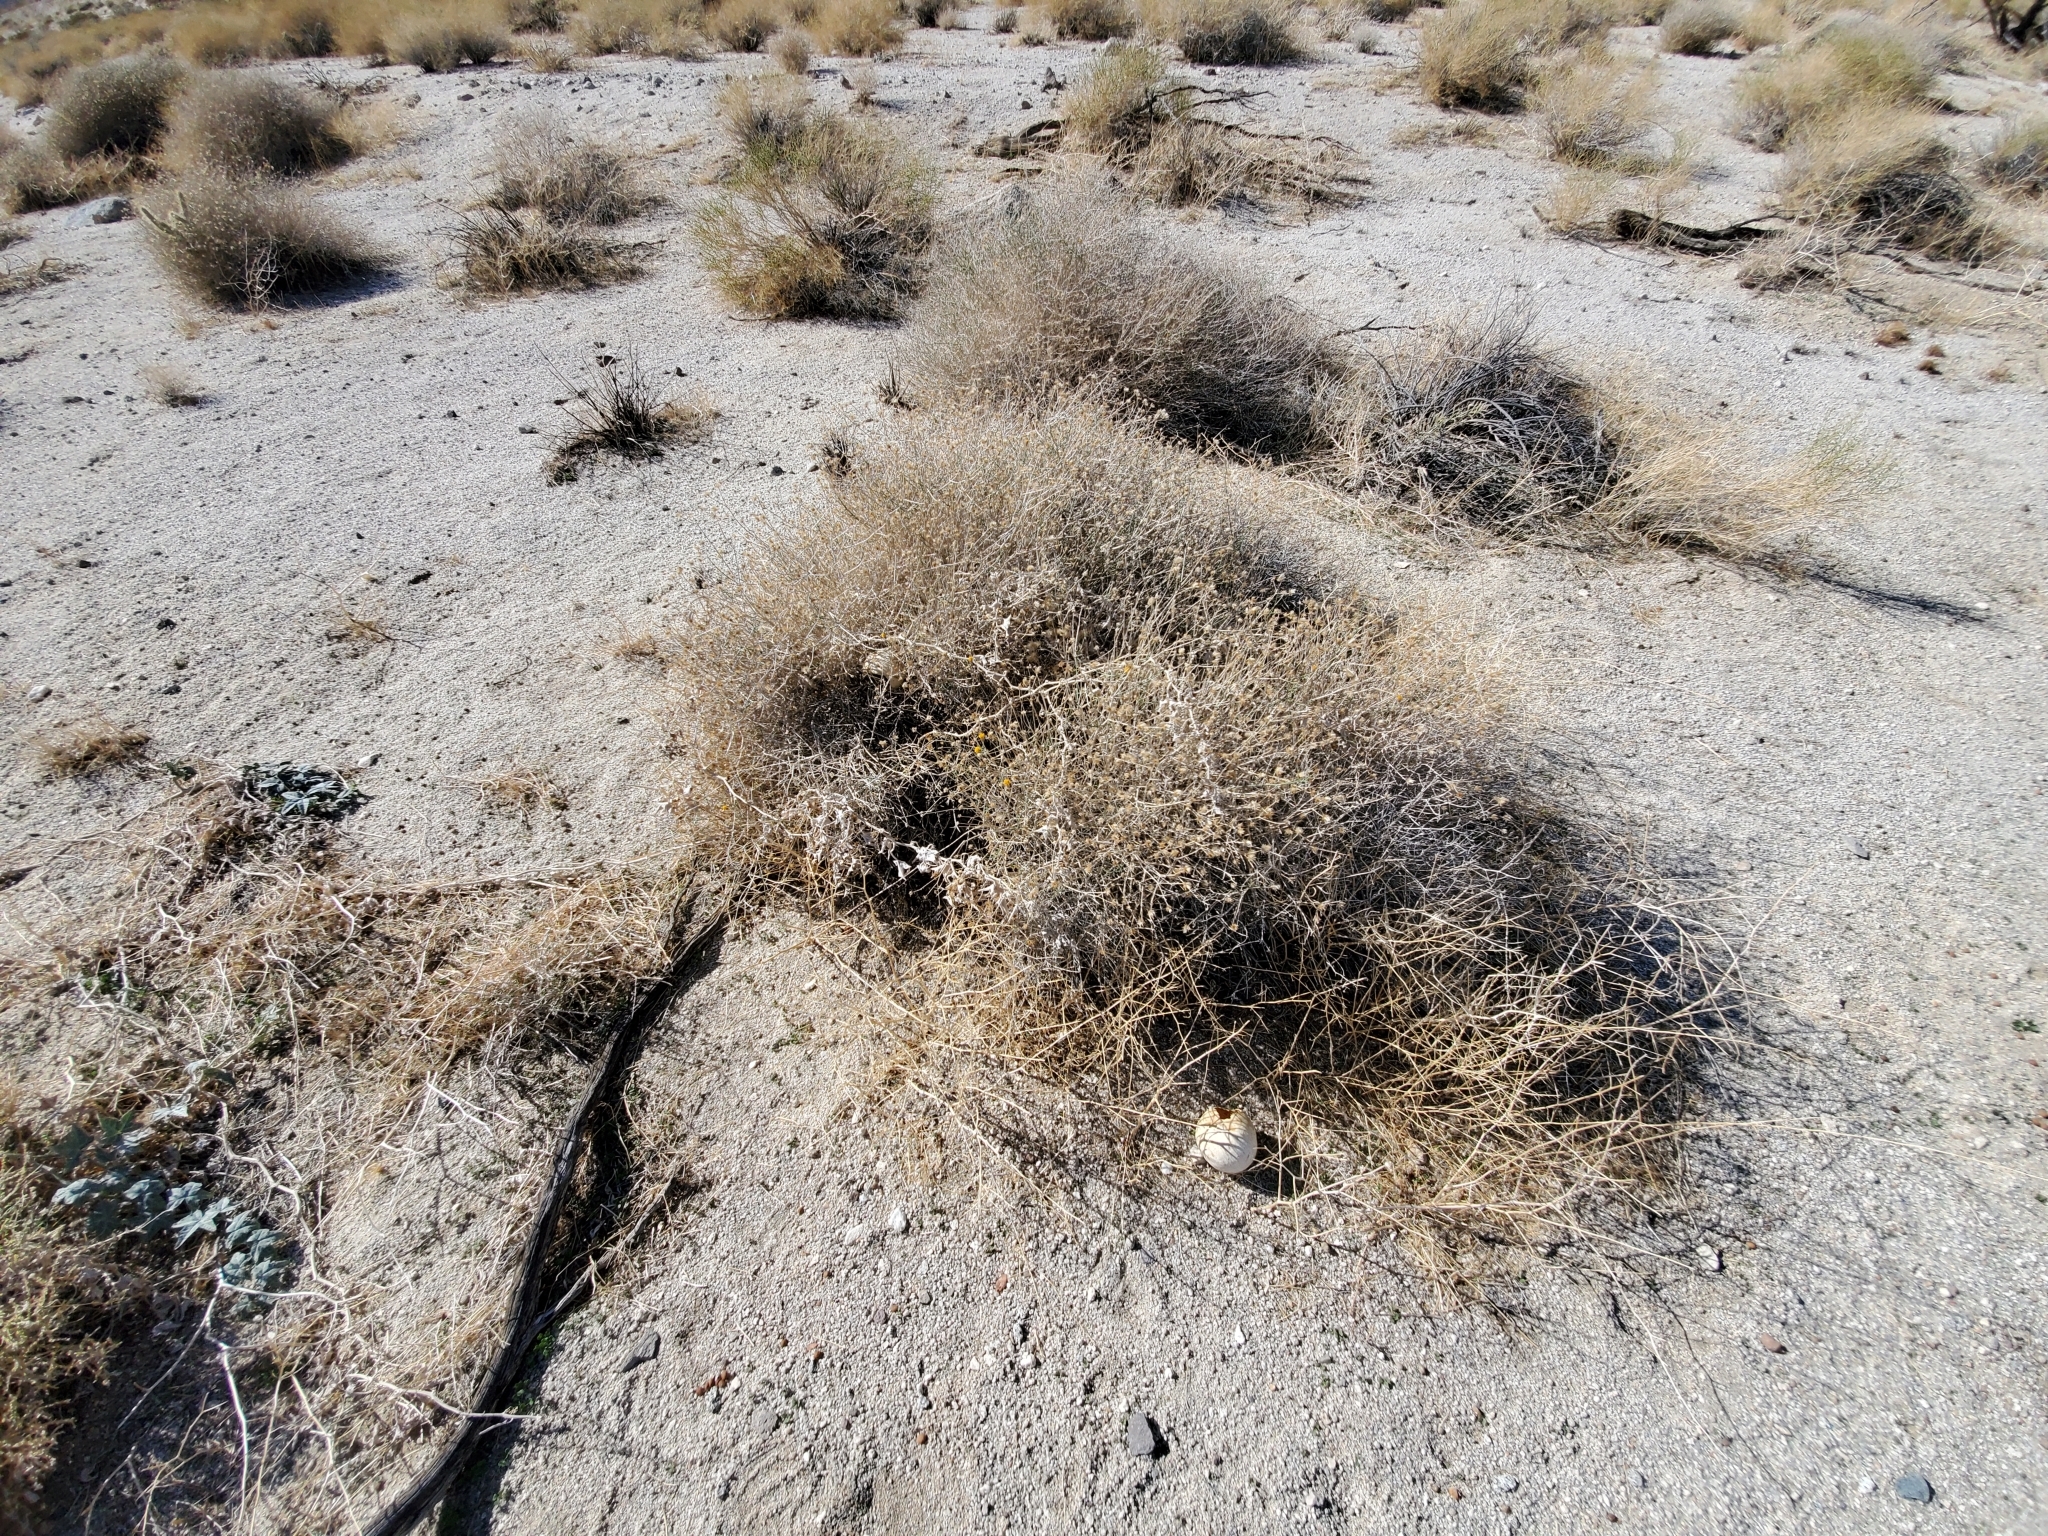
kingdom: Plantae
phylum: Tracheophyta
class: Magnoliopsida
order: Asterales
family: Asteraceae
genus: Bebbia
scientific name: Bebbia juncea
